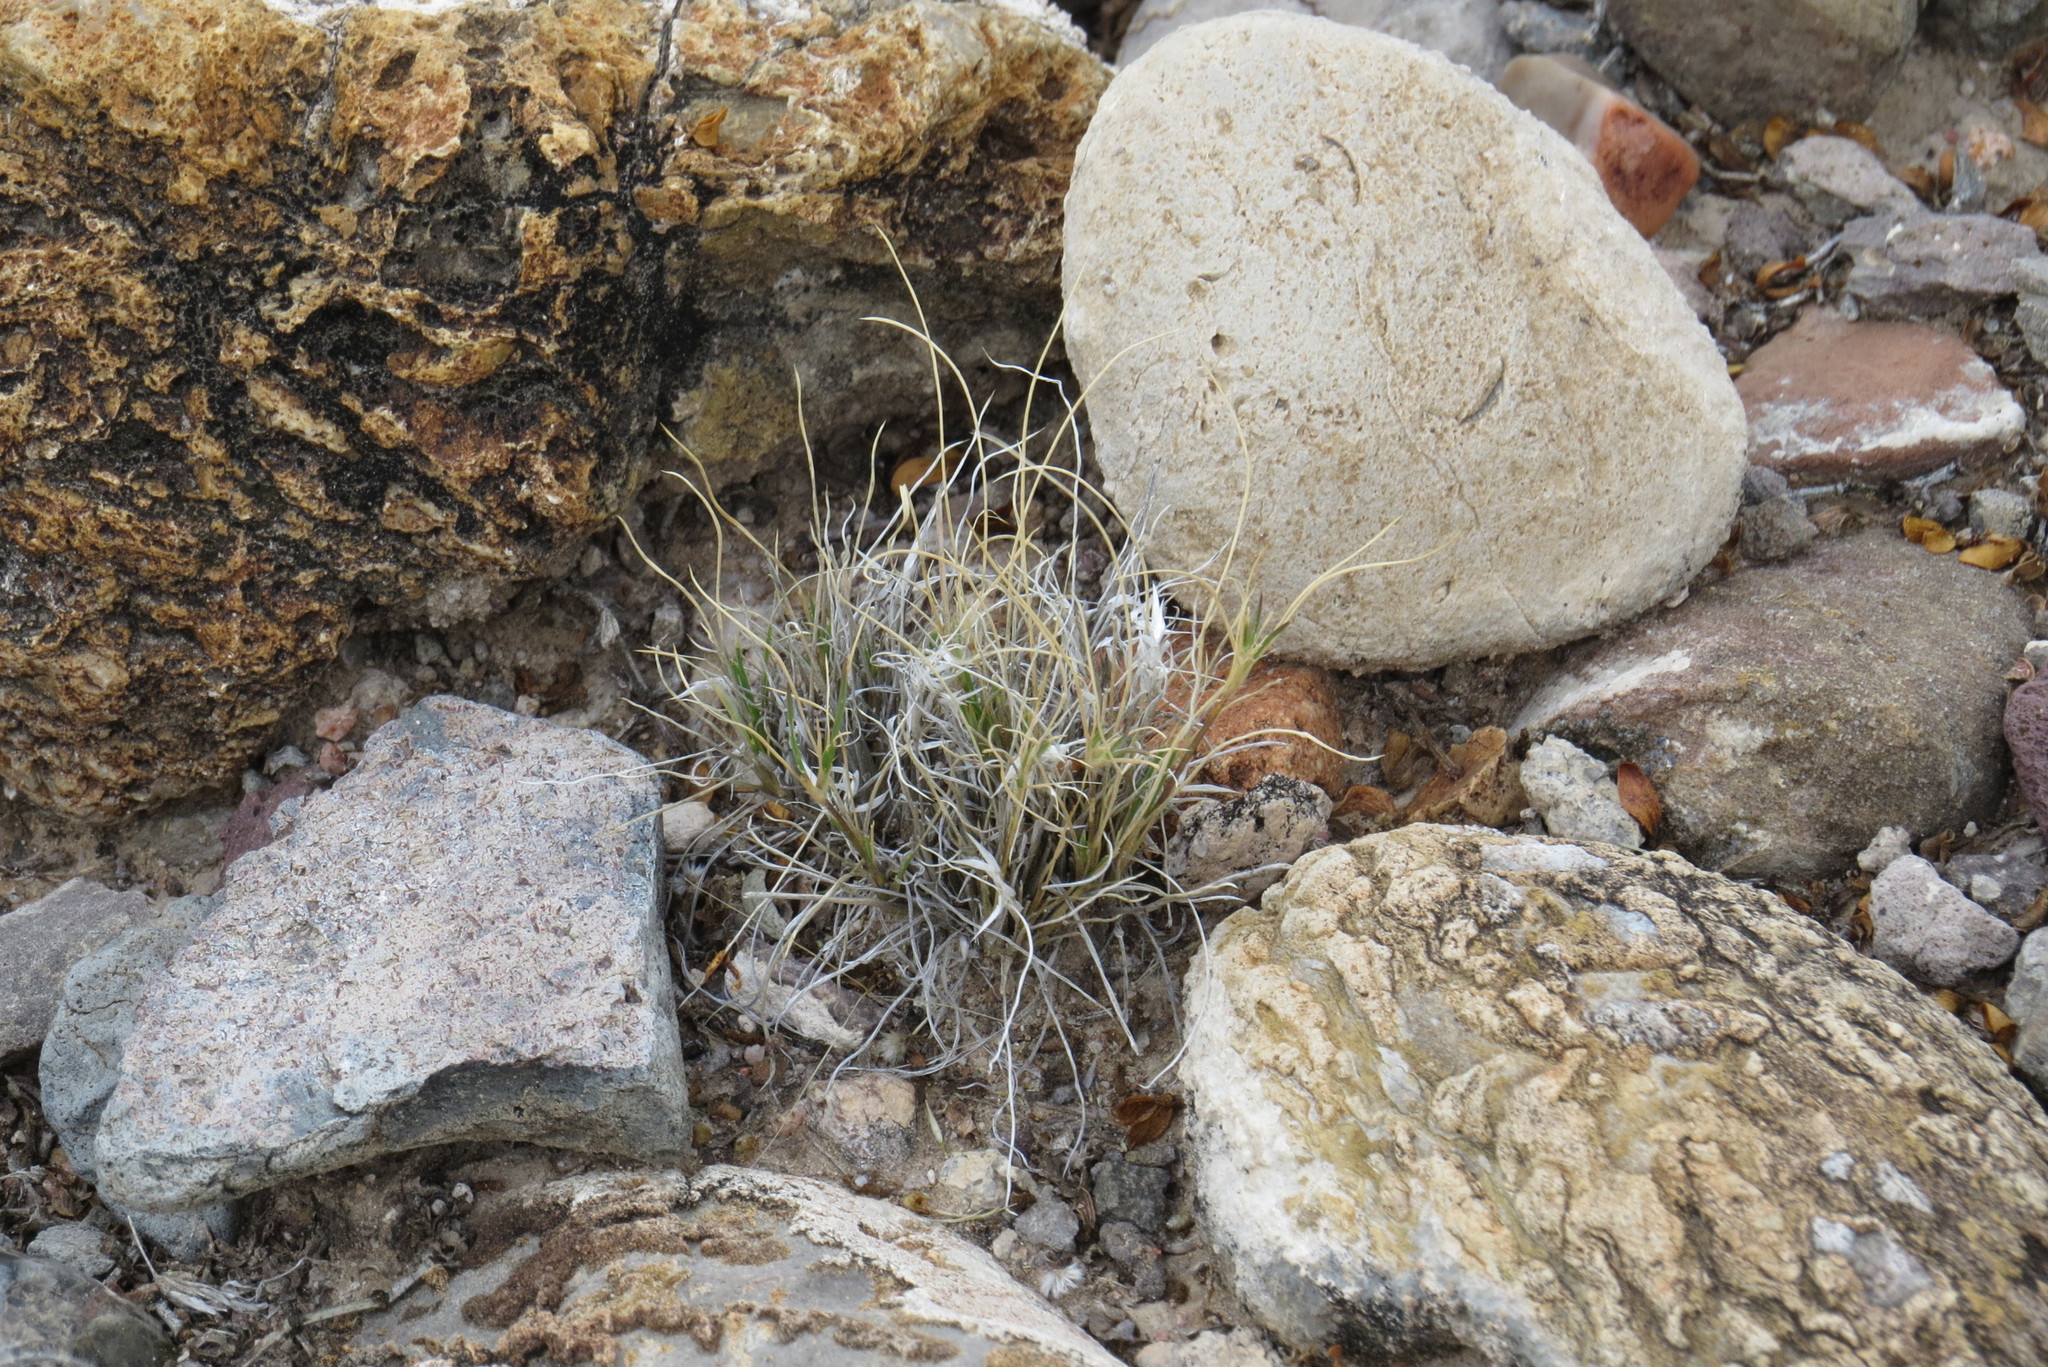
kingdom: Plantae
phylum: Tracheophyta
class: Liliopsida
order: Poales
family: Poaceae
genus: Dasyochloa
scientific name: Dasyochloa pulchella
